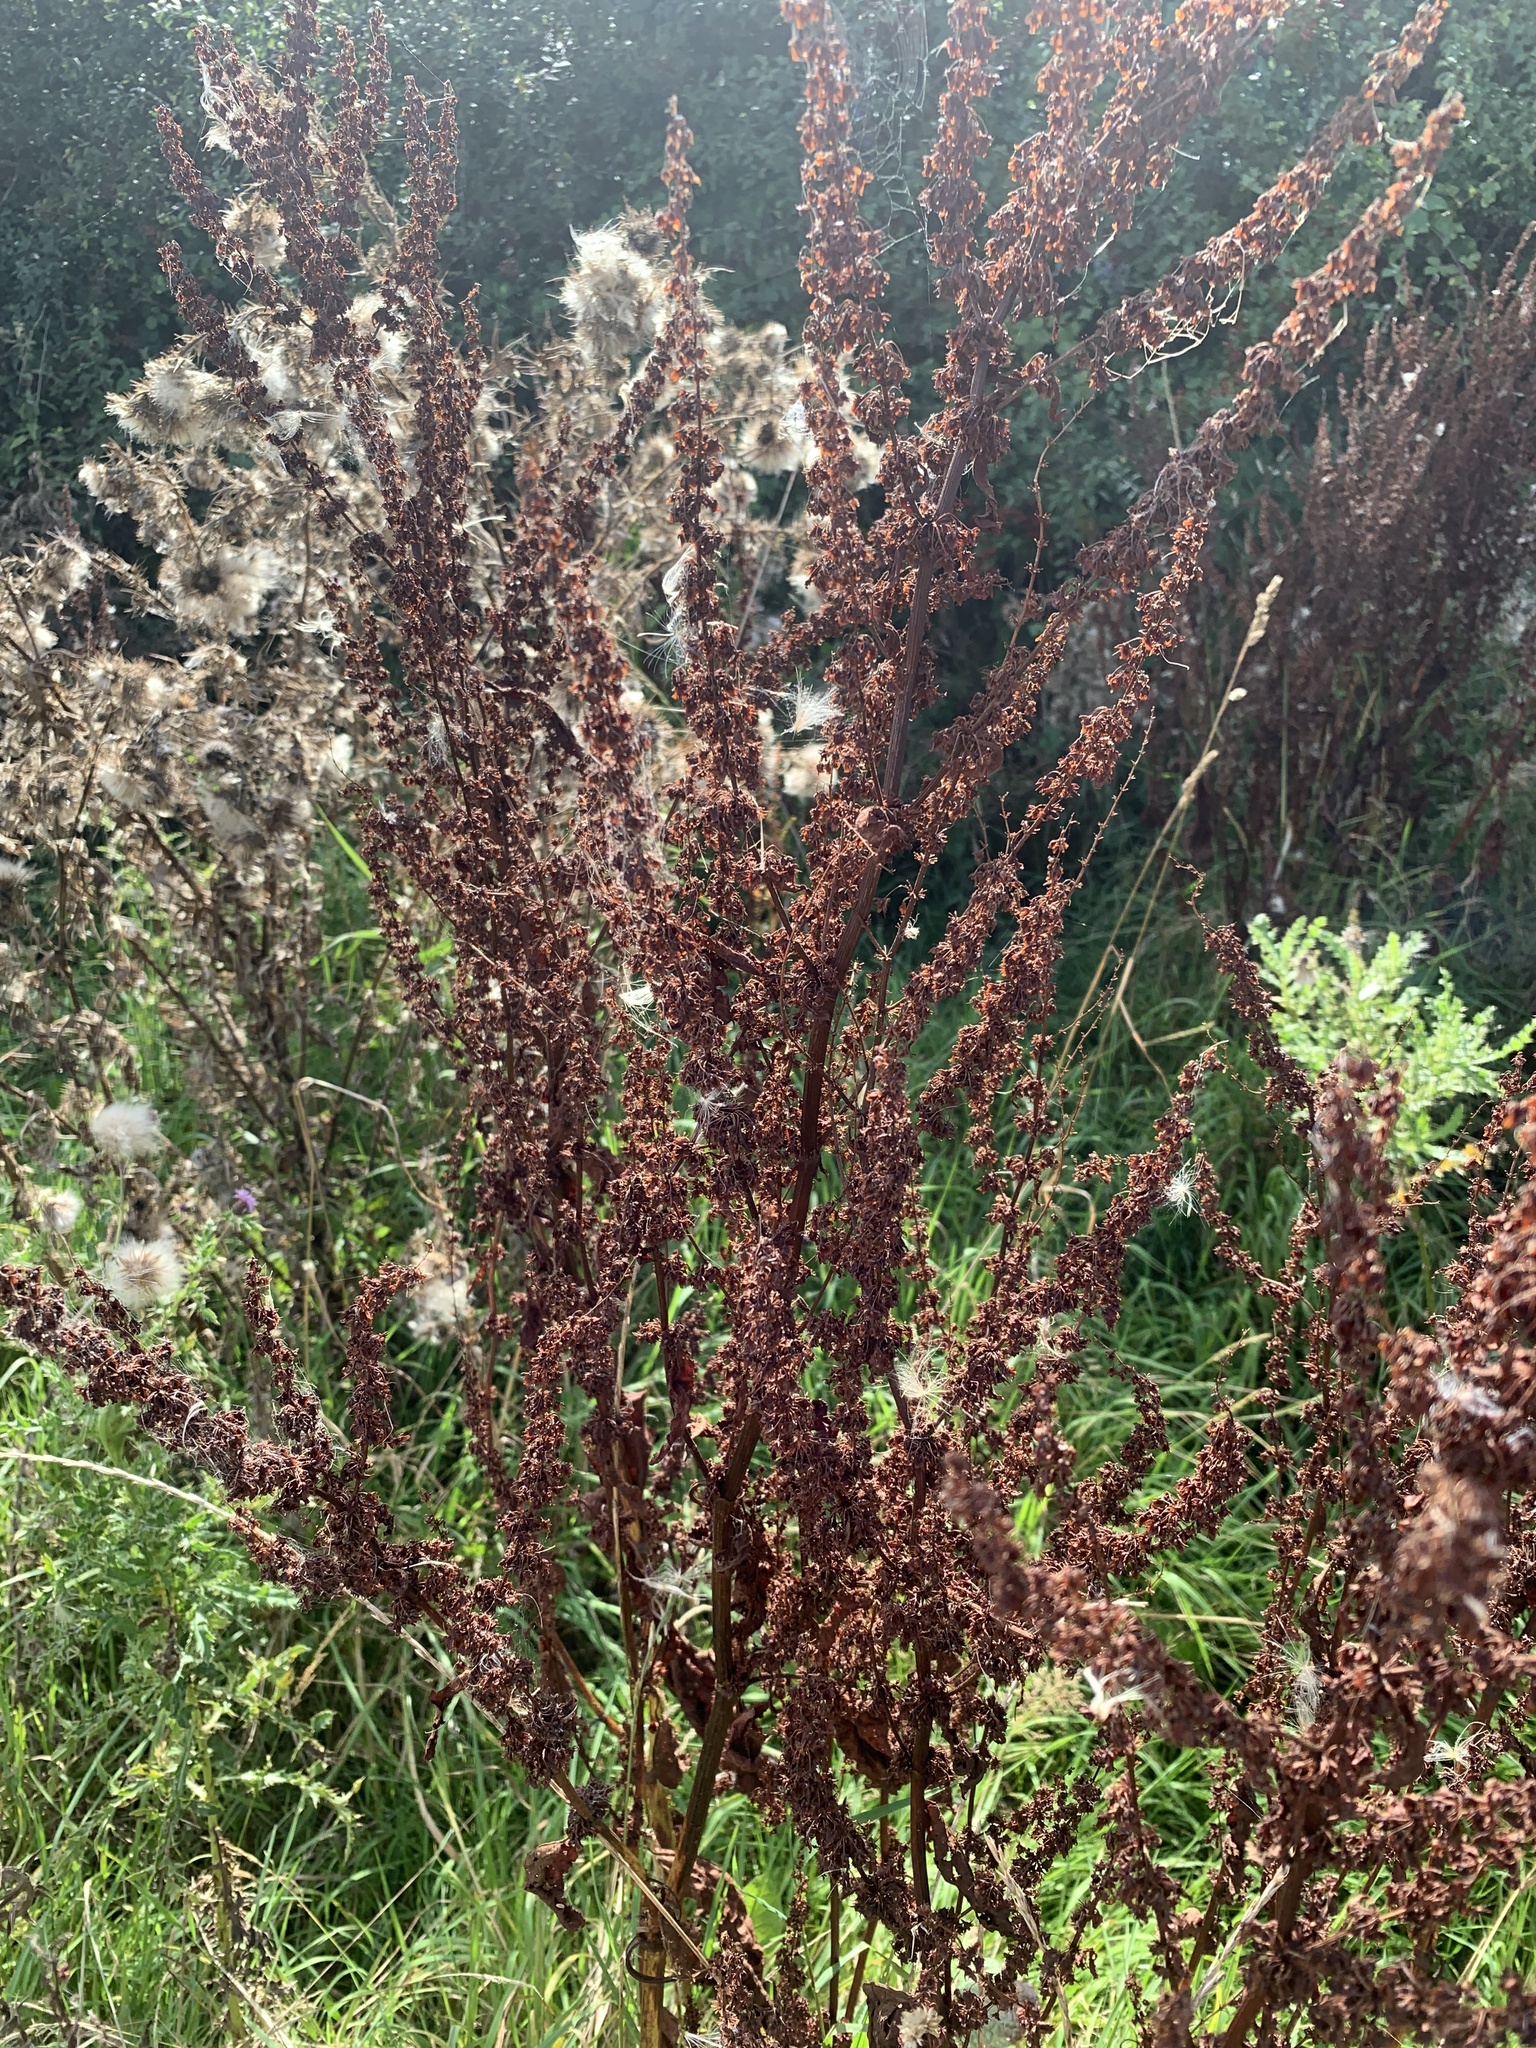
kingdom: Plantae
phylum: Tracheophyta
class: Magnoliopsida
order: Caryophyllales
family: Polygonaceae
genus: Rumex
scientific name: Rumex crispus
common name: Curled dock
